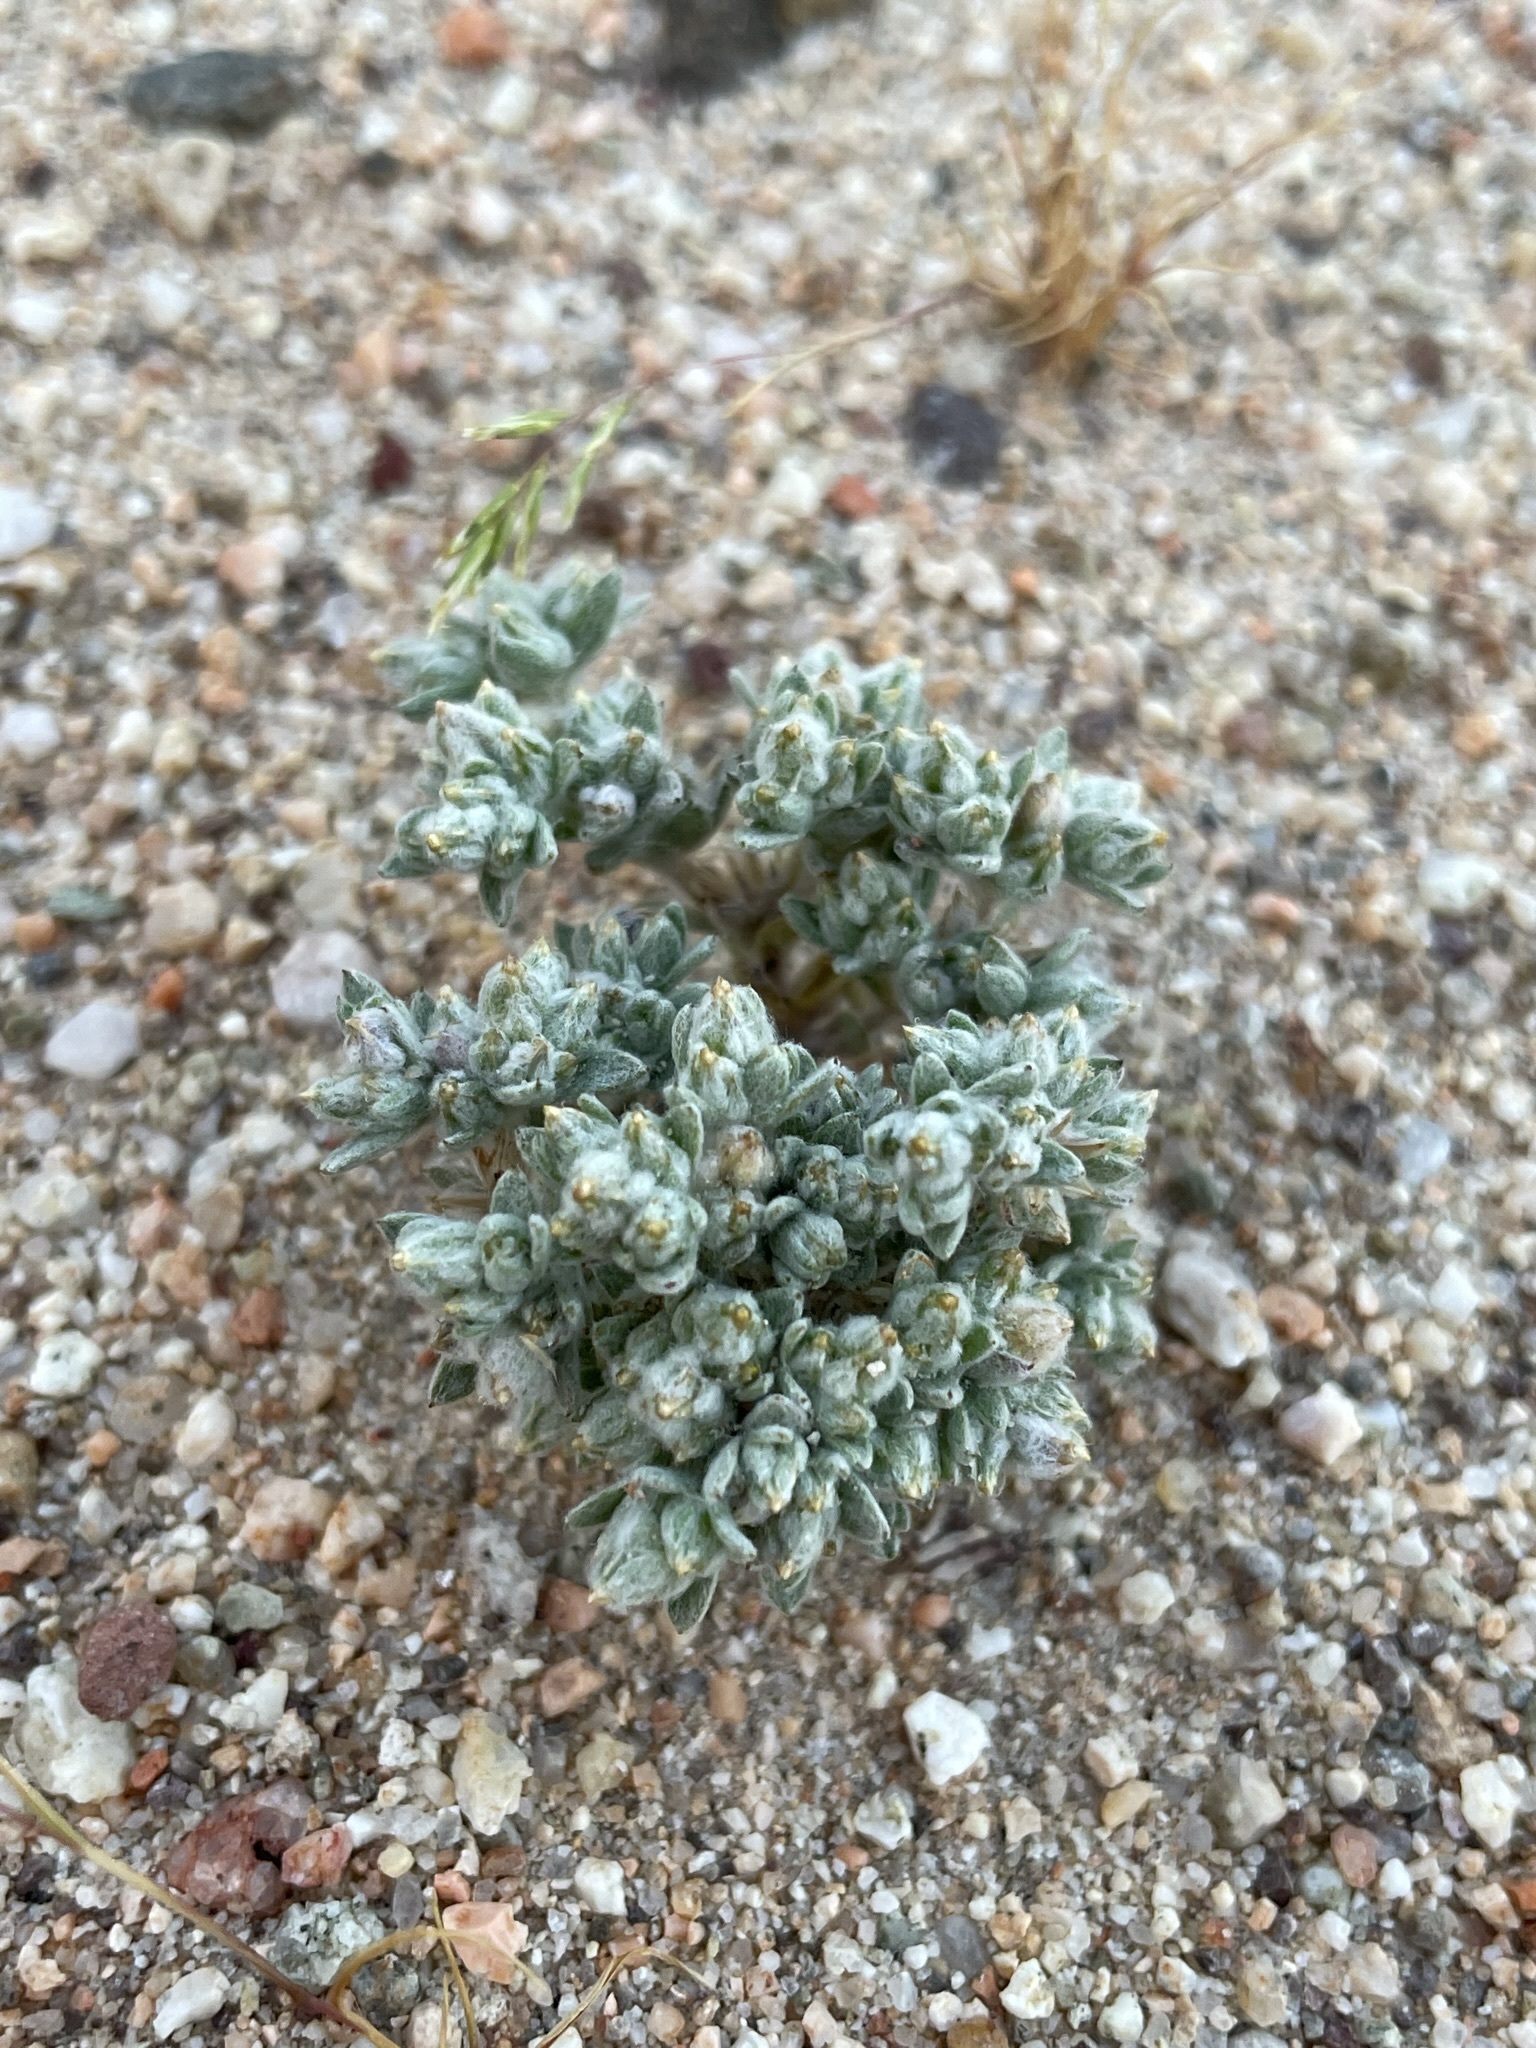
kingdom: Plantae
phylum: Tracheophyta
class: Magnoliopsida
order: Asterales
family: Asteraceae
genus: Logfia
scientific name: Logfia depressa
